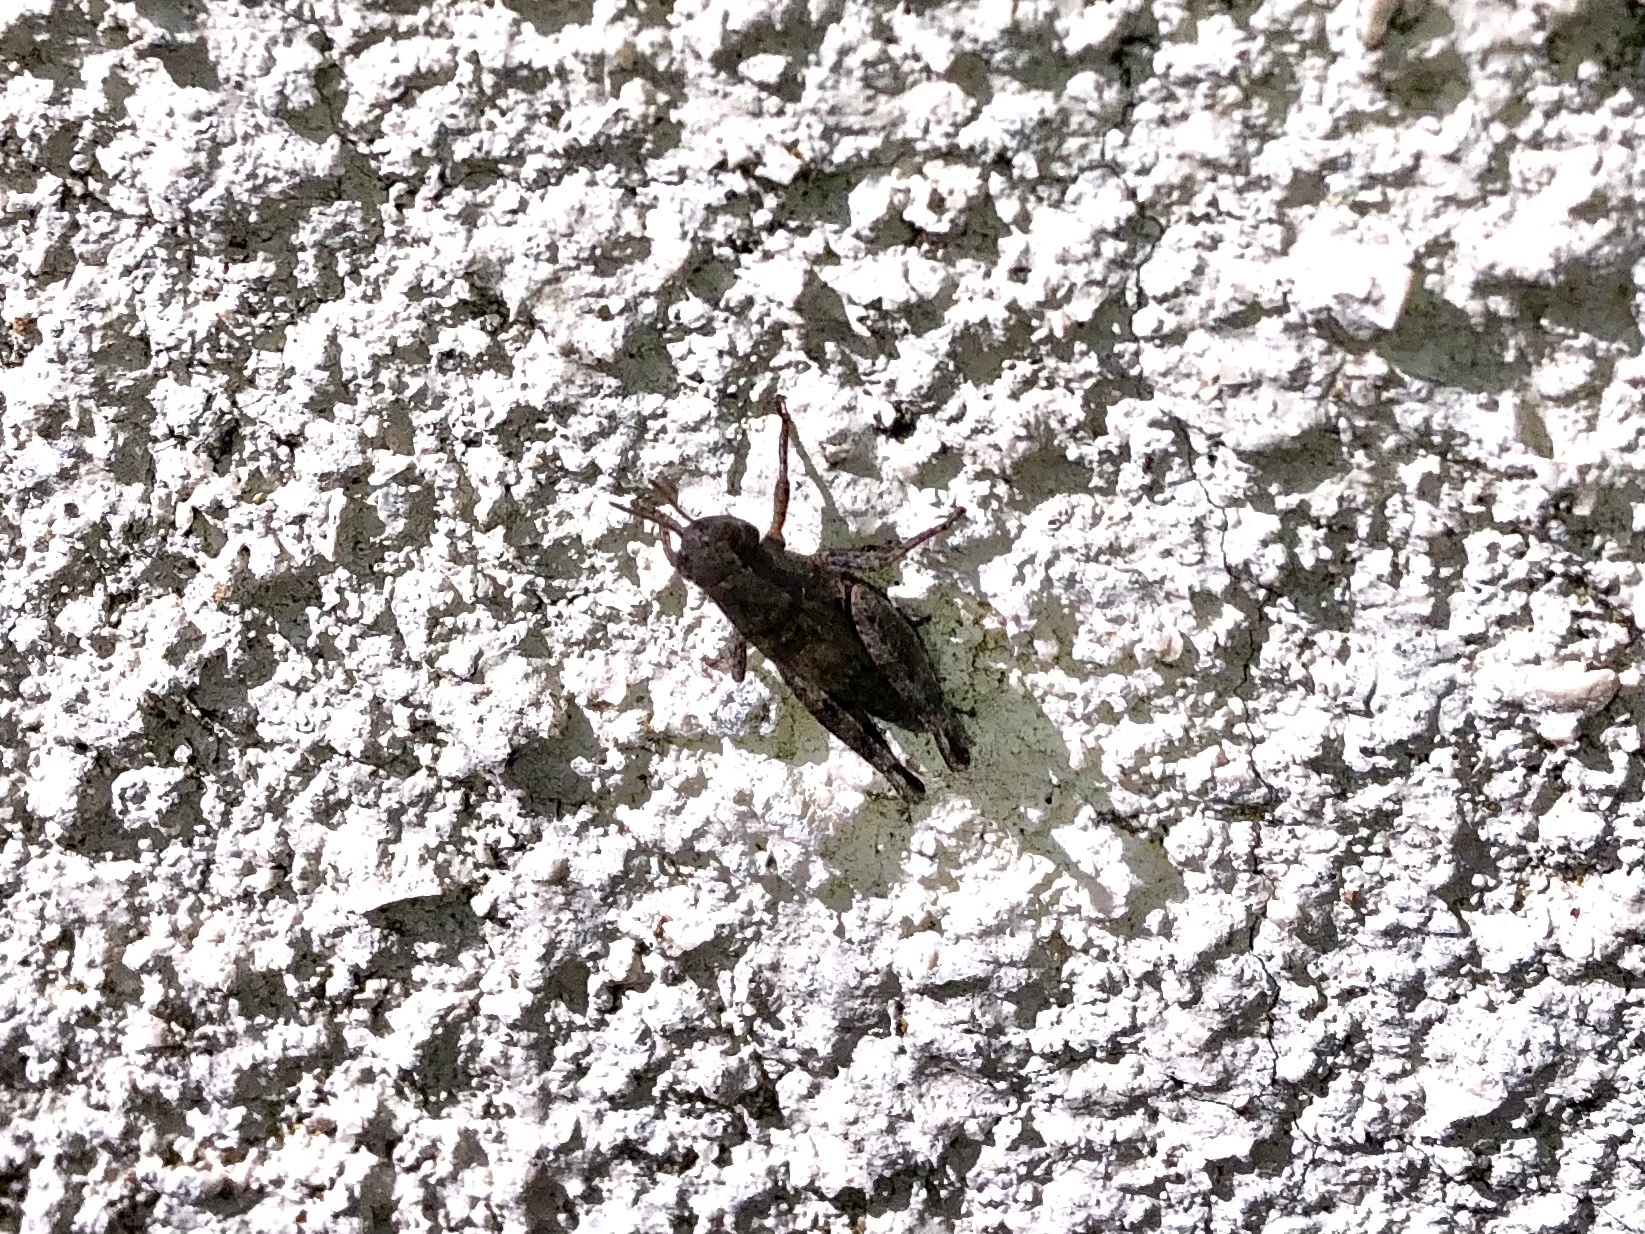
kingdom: Animalia
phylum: Arthropoda
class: Insecta
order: Orthoptera
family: Acrididae
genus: Pezotettix
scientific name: Pezotettix giornae
